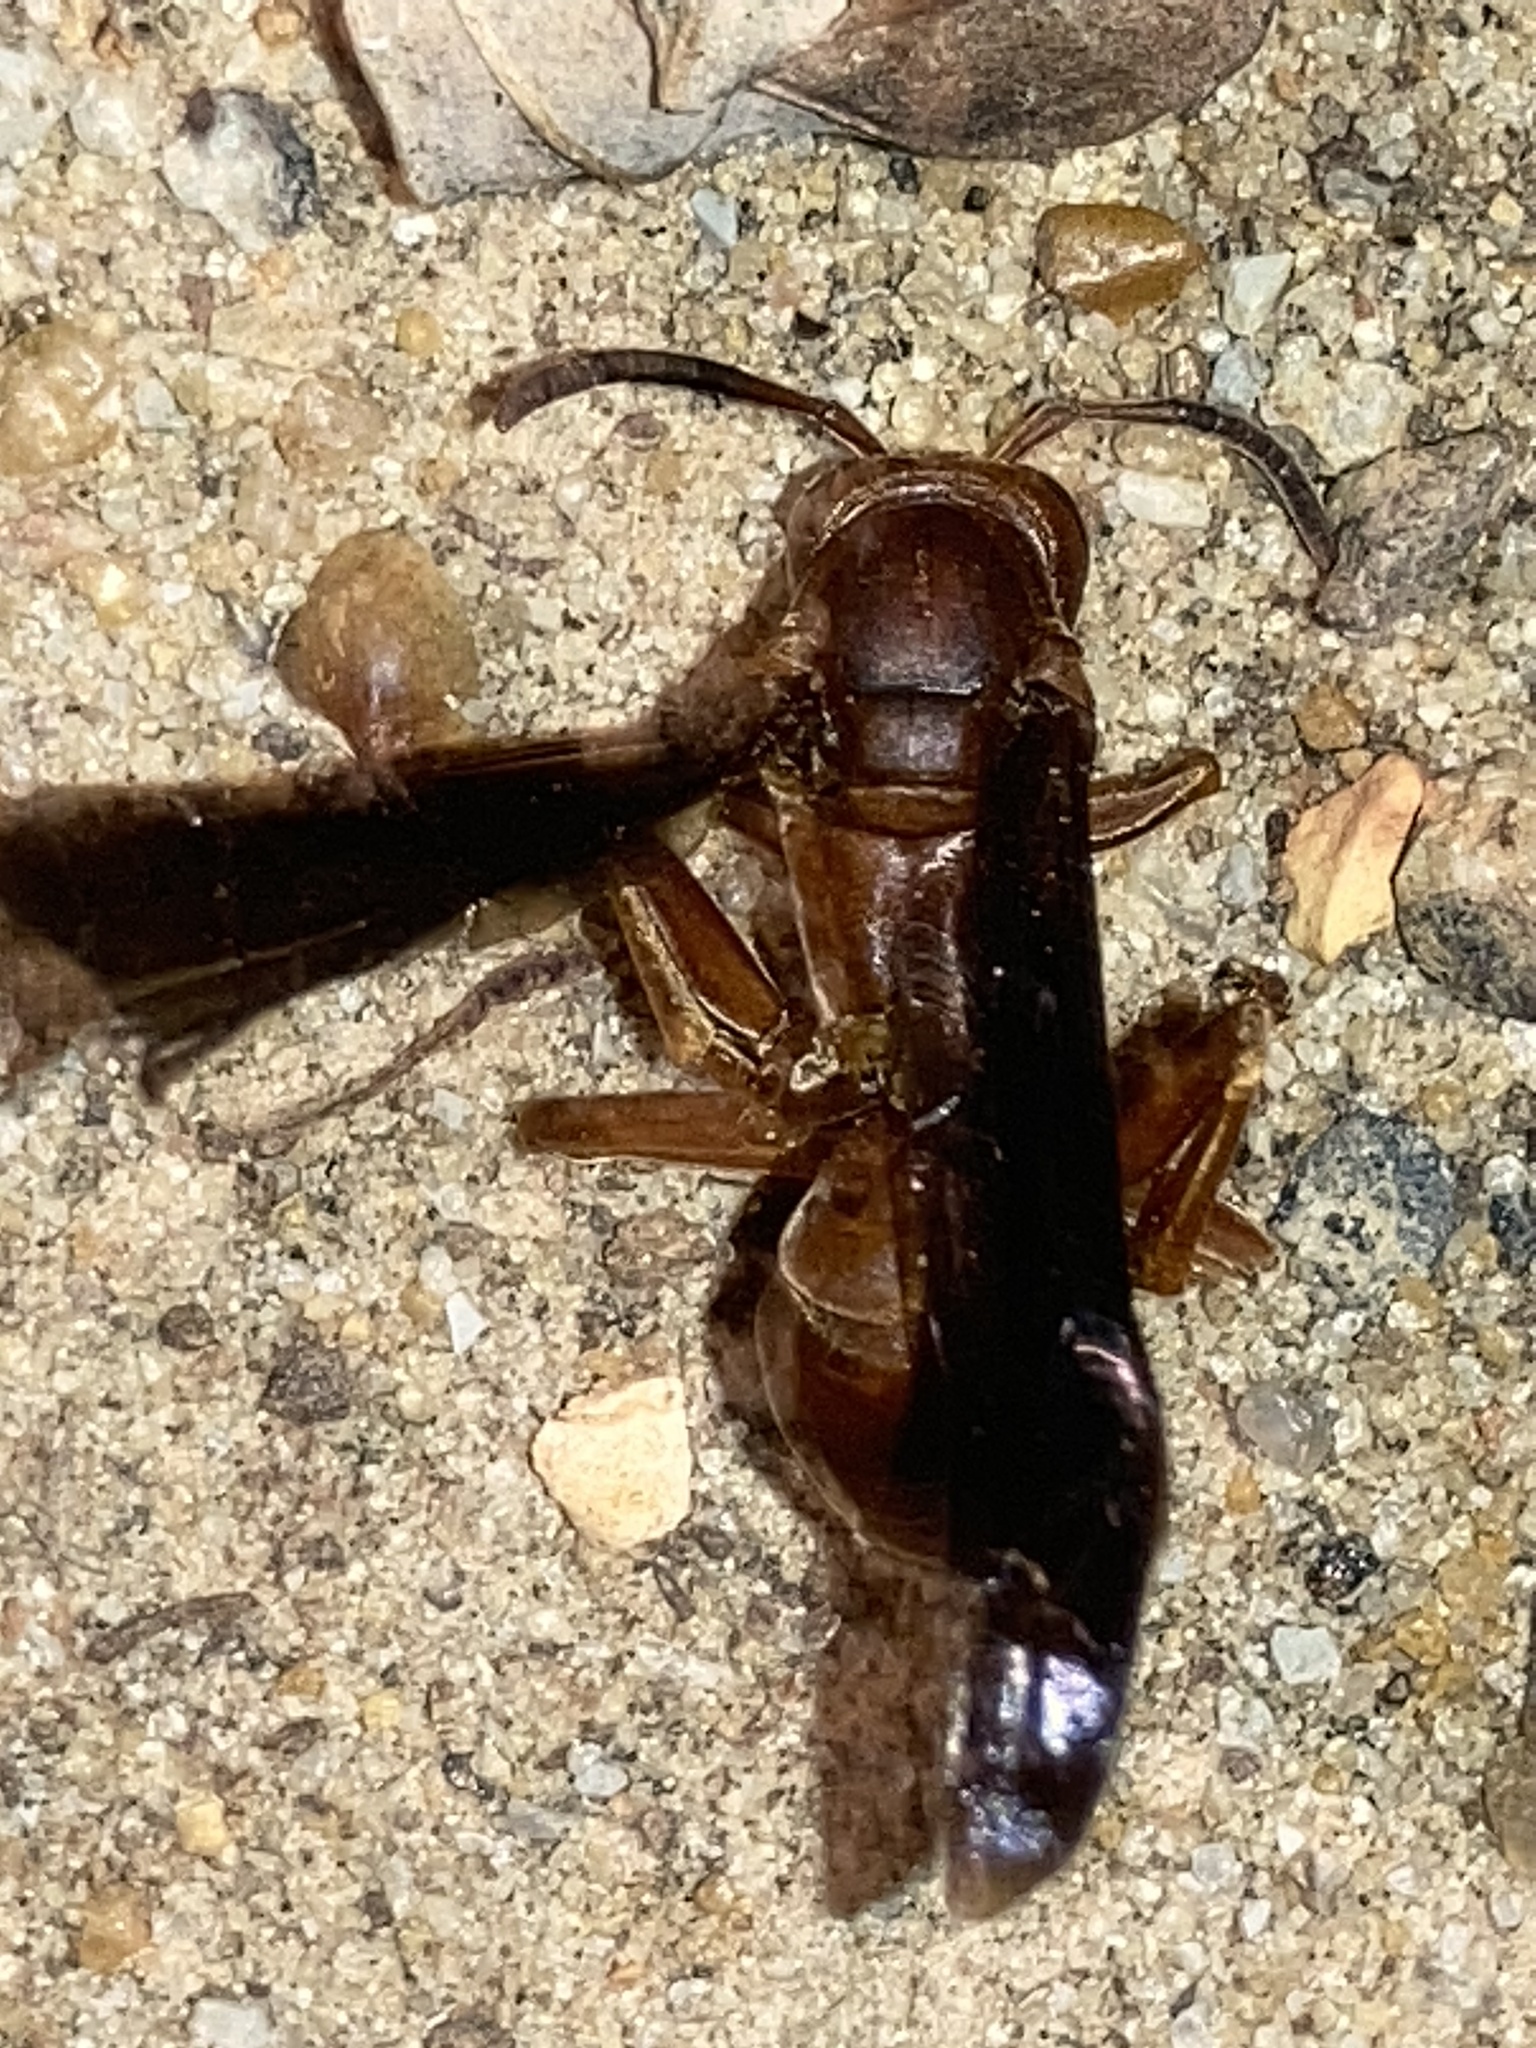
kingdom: Animalia
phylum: Arthropoda
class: Insecta
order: Hymenoptera
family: Eumenidae
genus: Polistes
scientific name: Polistes carolina
